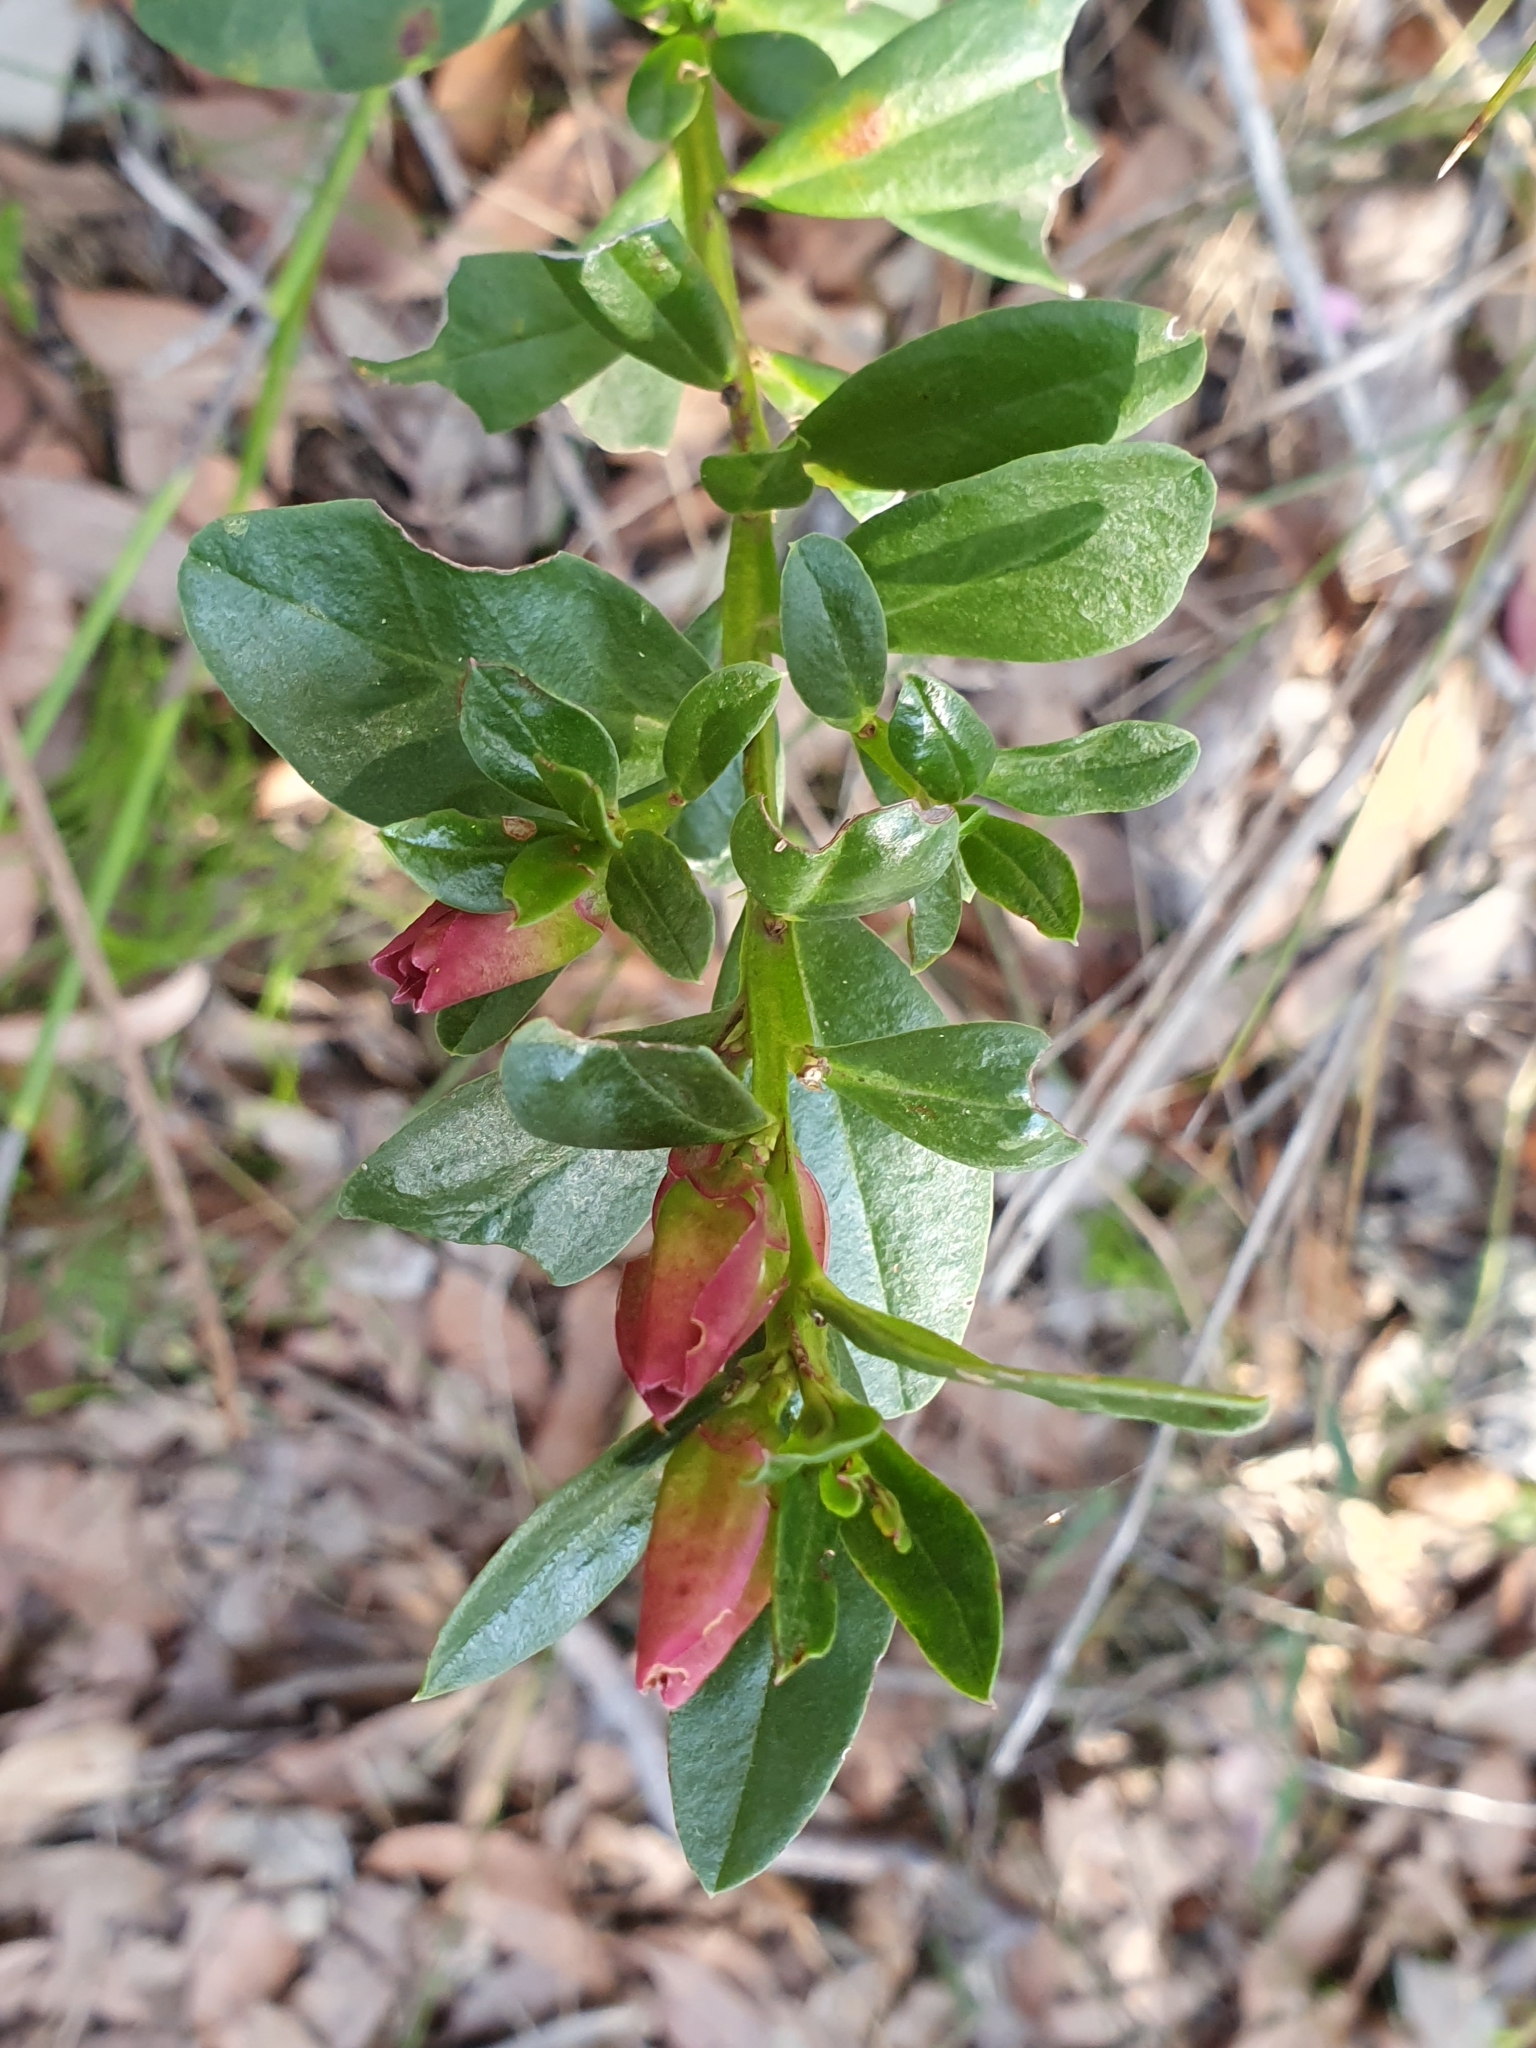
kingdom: Plantae
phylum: Tracheophyta
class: Magnoliopsida
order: Sapindales
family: Rutaceae
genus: Crowea
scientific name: Crowea saligna
